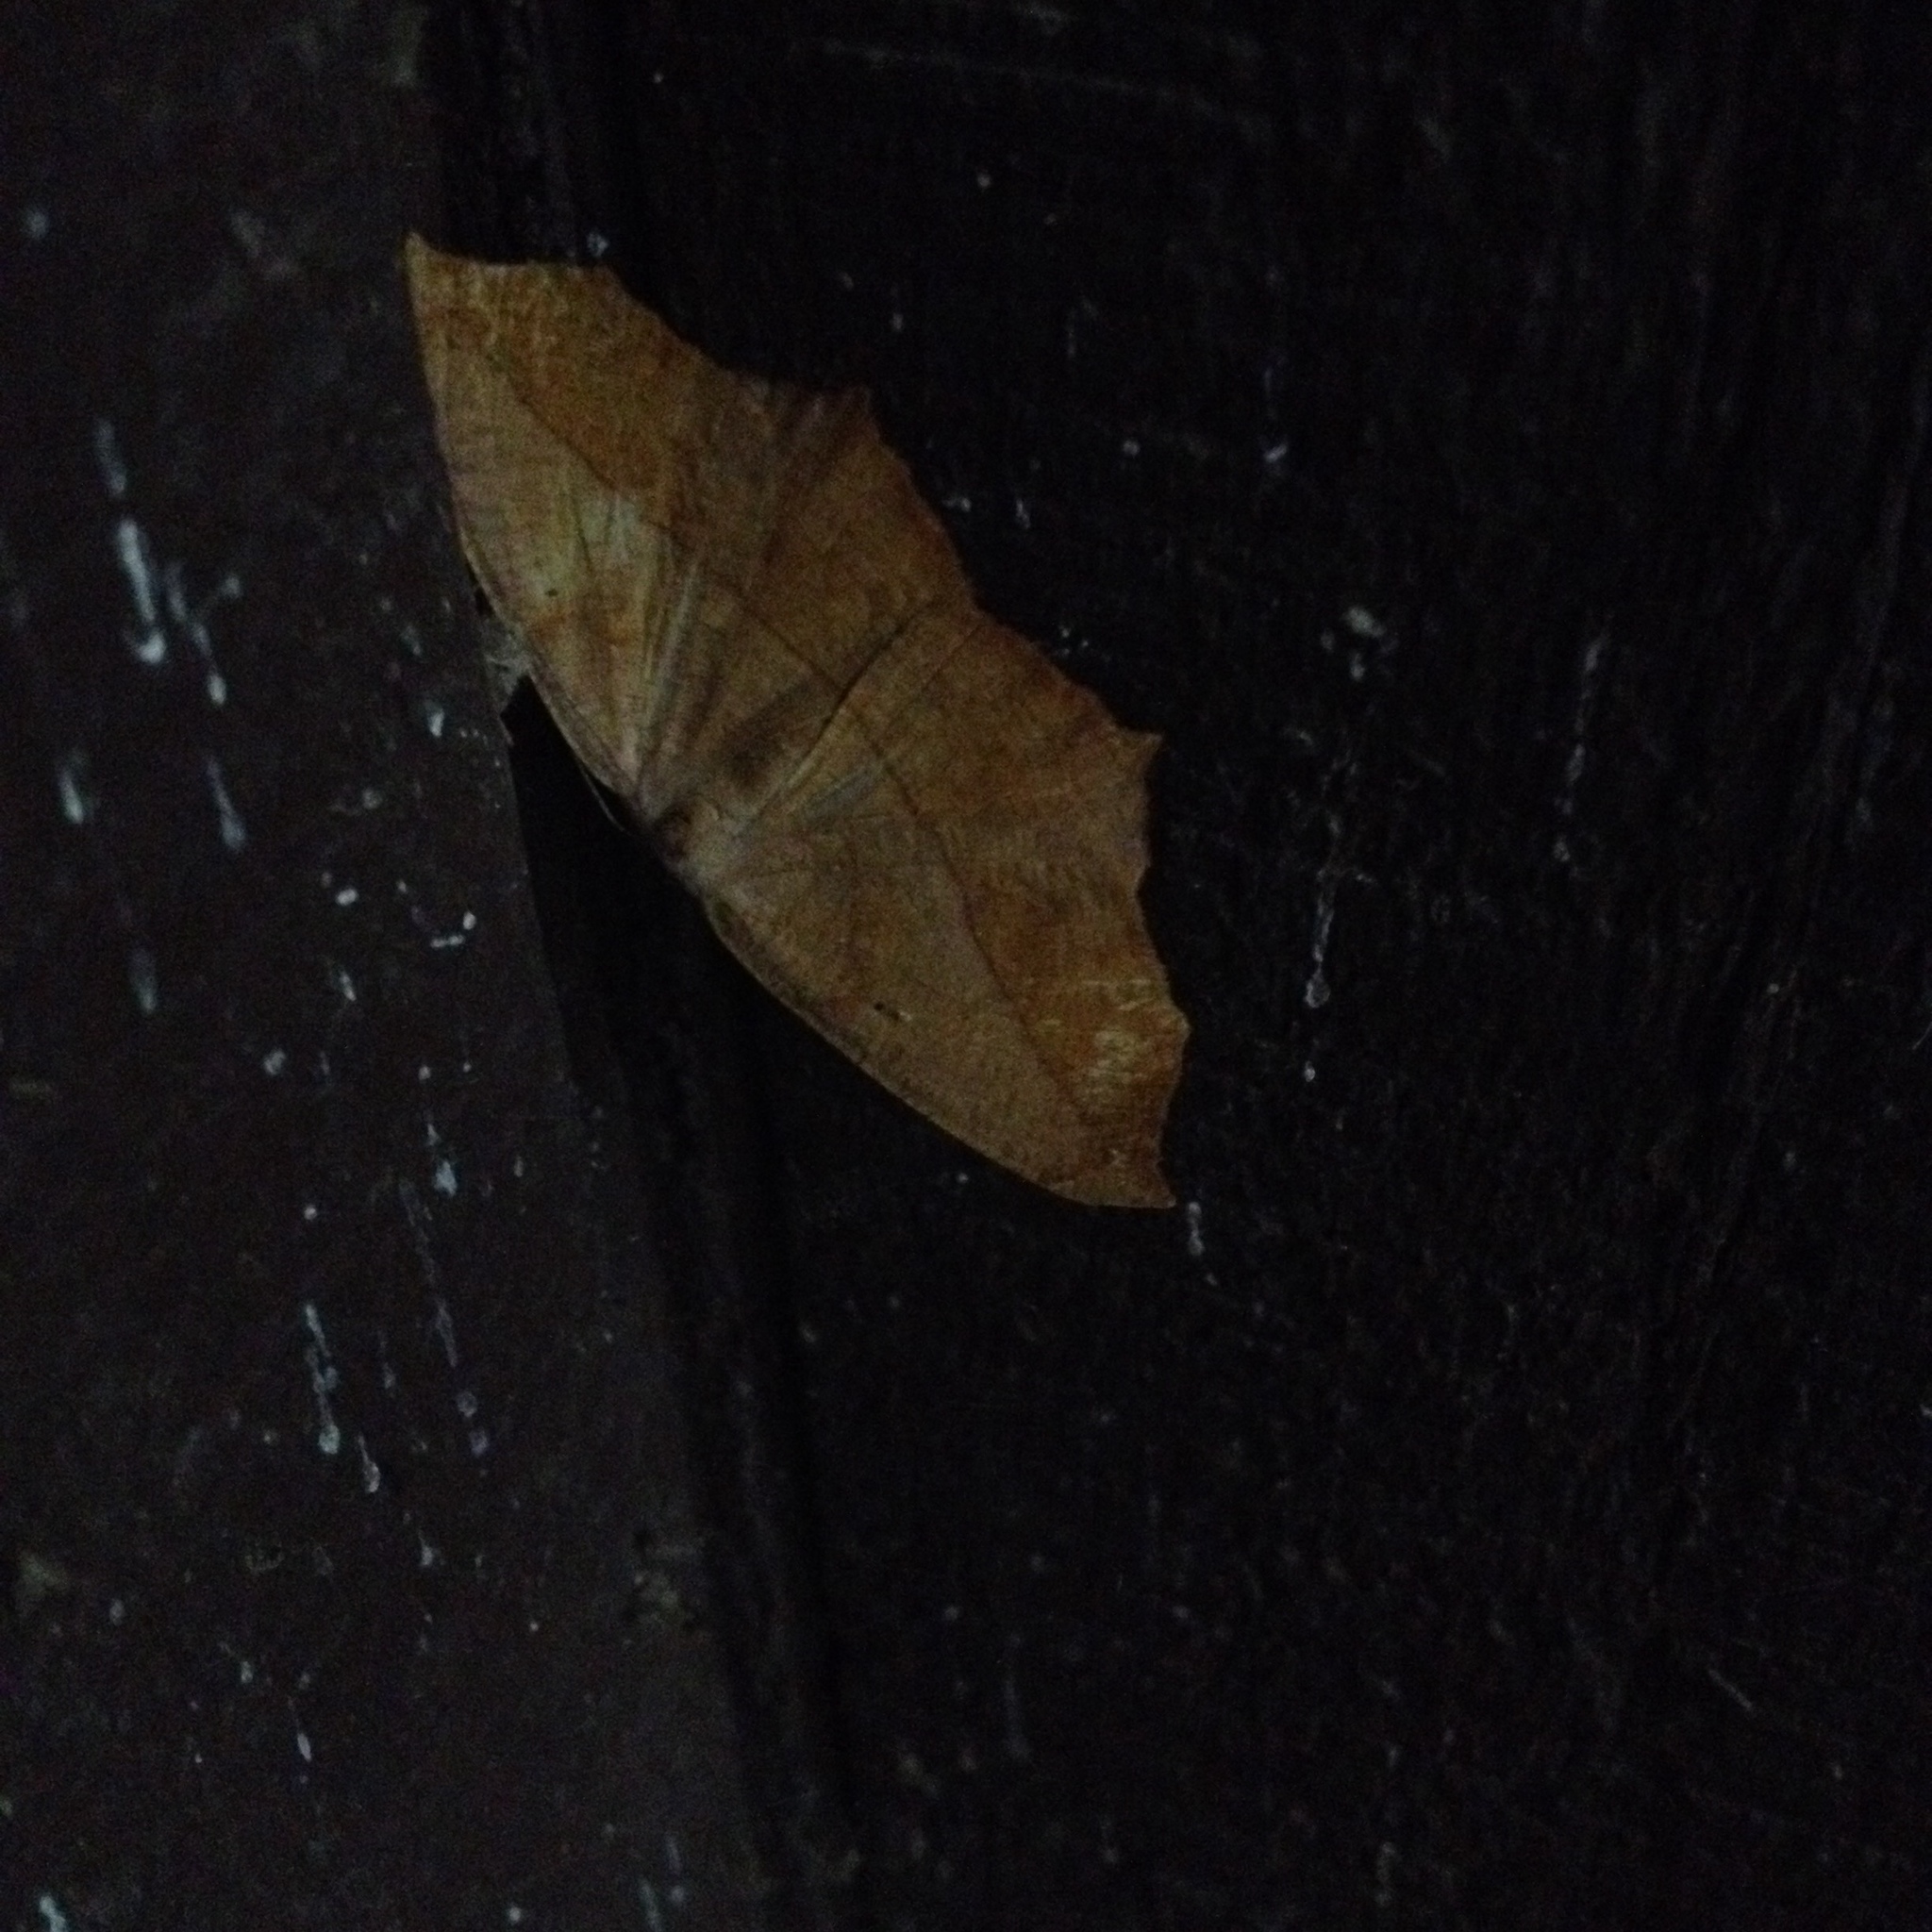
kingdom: Animalia
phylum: Arthropoda
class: Insecta
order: Lepidoptera
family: Geometridae
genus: Prochoerodes
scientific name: Prochoerodes lineola
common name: Large maple spanworm
